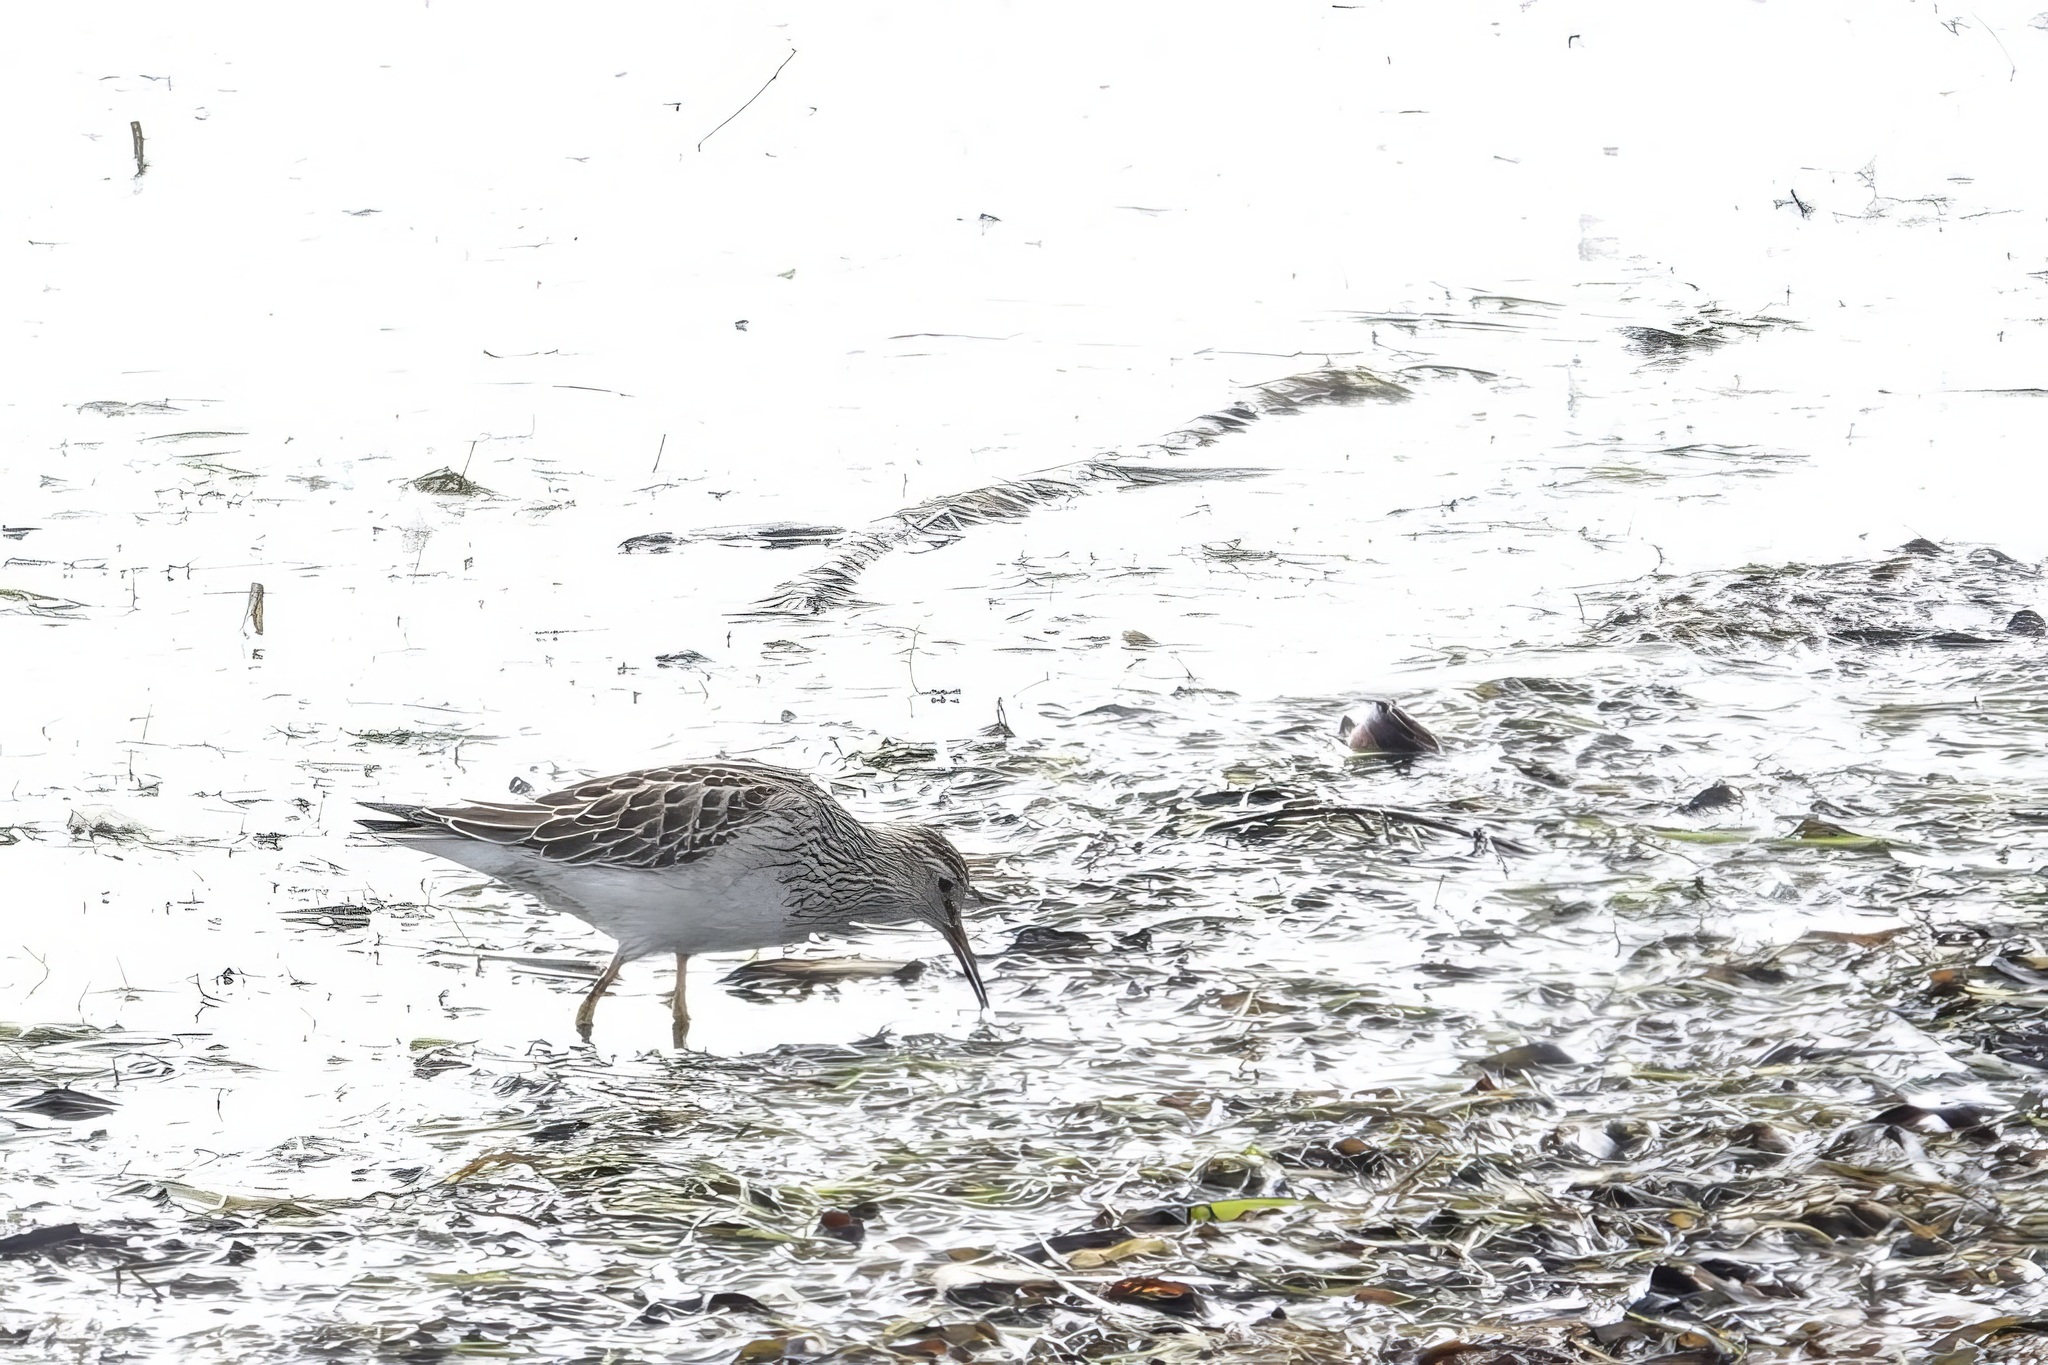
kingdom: Animalia
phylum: Chordata
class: Aves
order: Charadriiformes
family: Scolopacidae
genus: Calidris
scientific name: Calidris melanotos
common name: Pectoral sandpiper
